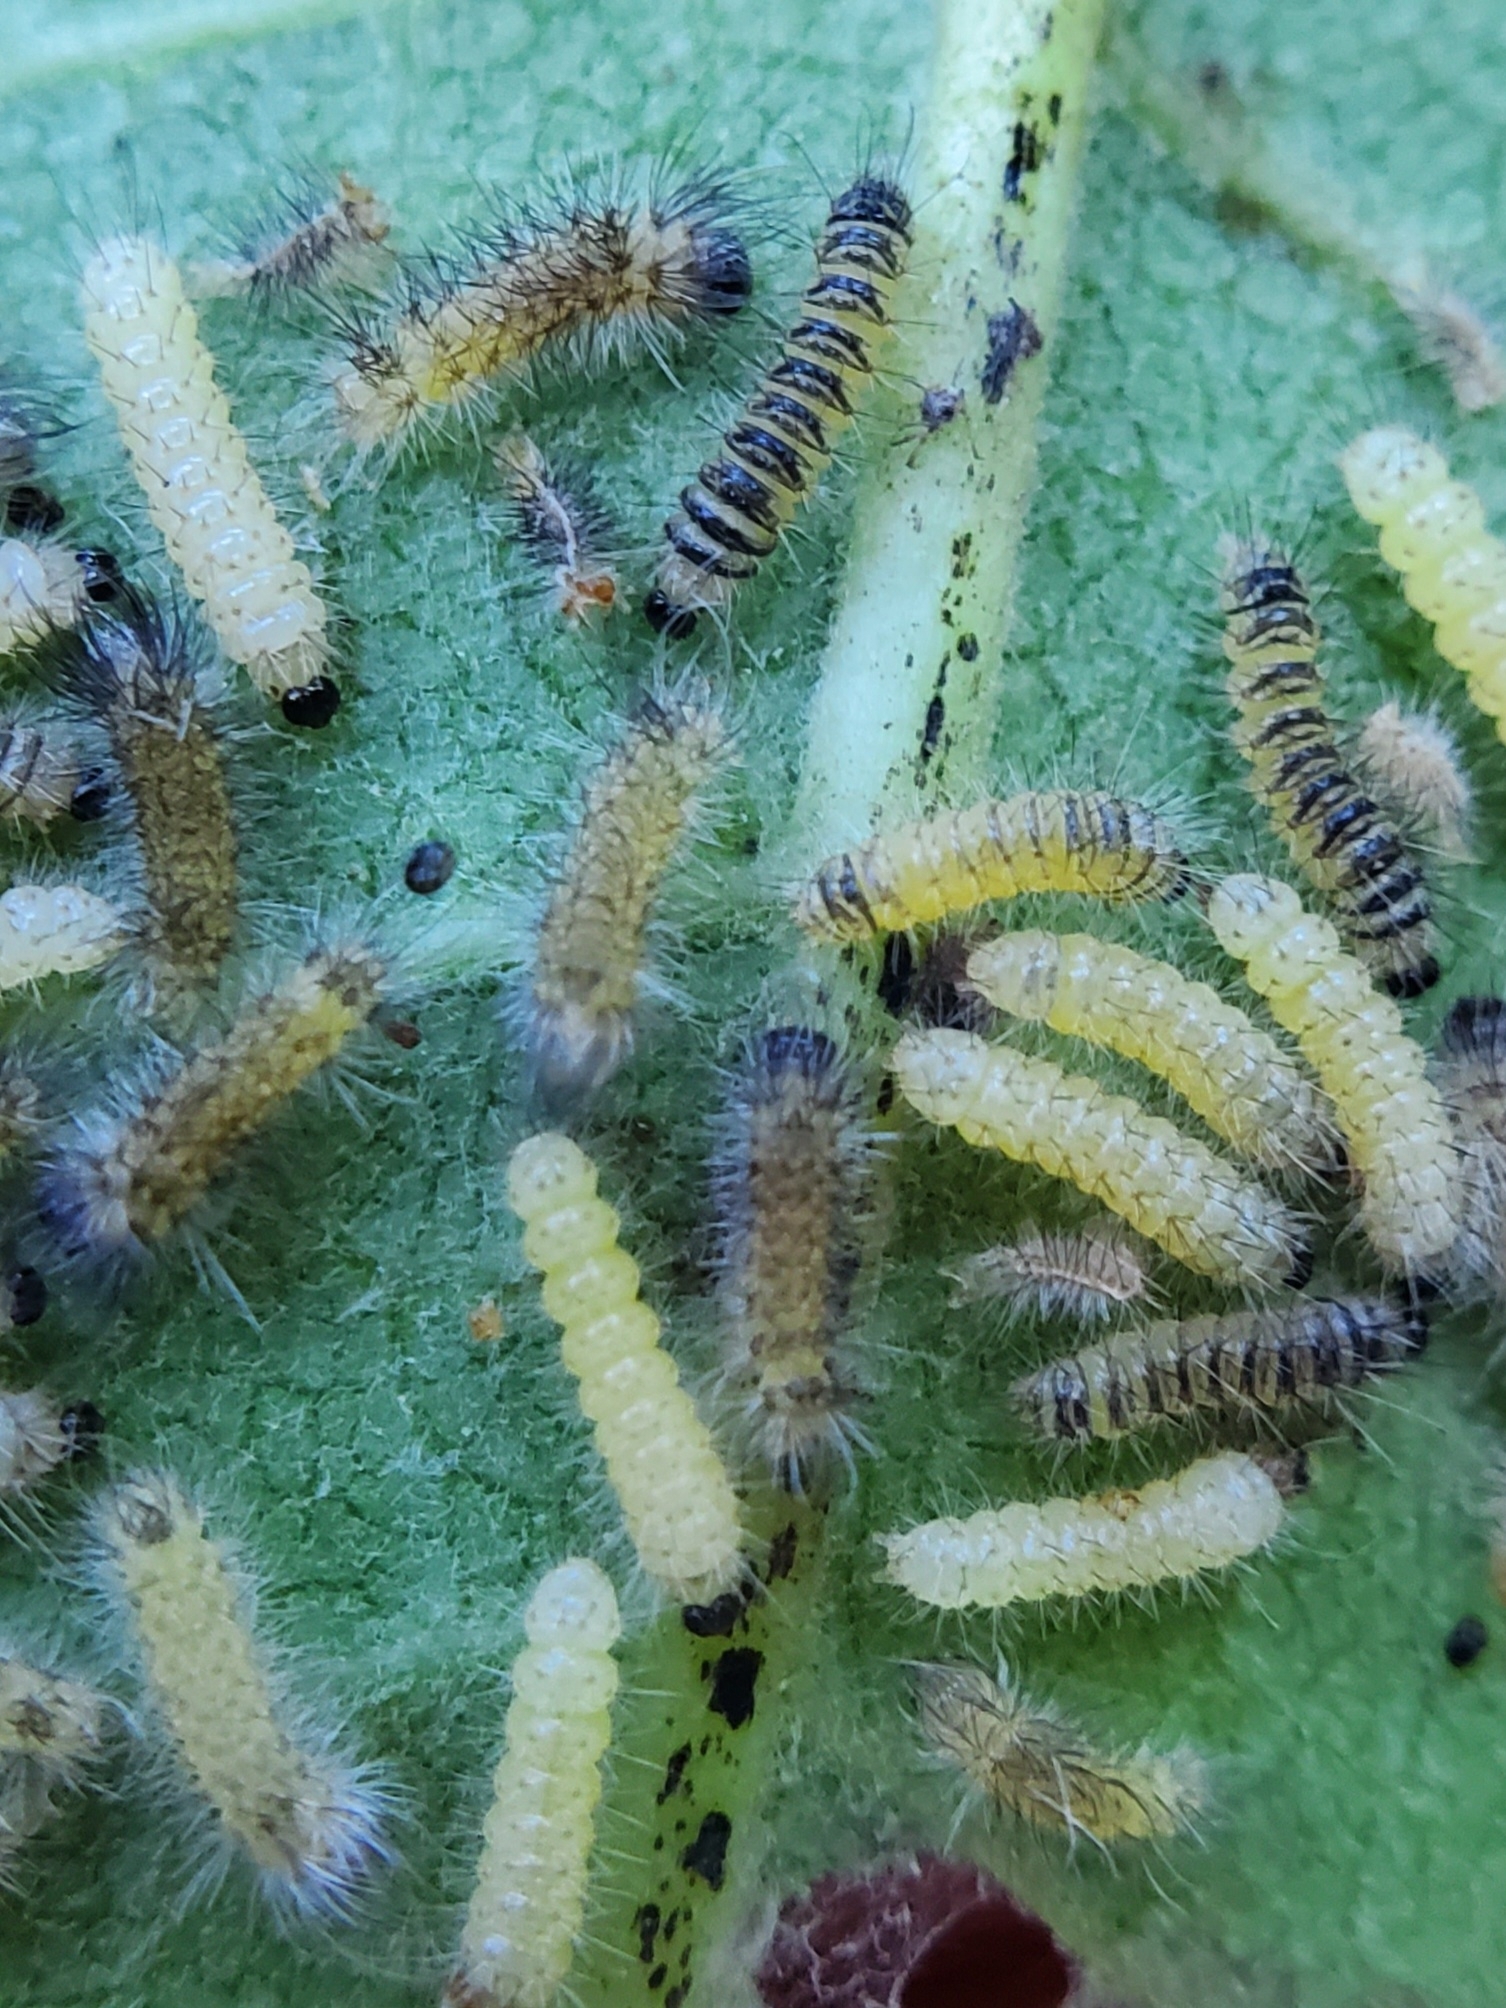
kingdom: Animalia
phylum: Arthropoda
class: Insecta
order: Lepidoptera
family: Erebidae
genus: Euchaetes
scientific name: Euchaetes egle
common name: Milkweed tussock moth
